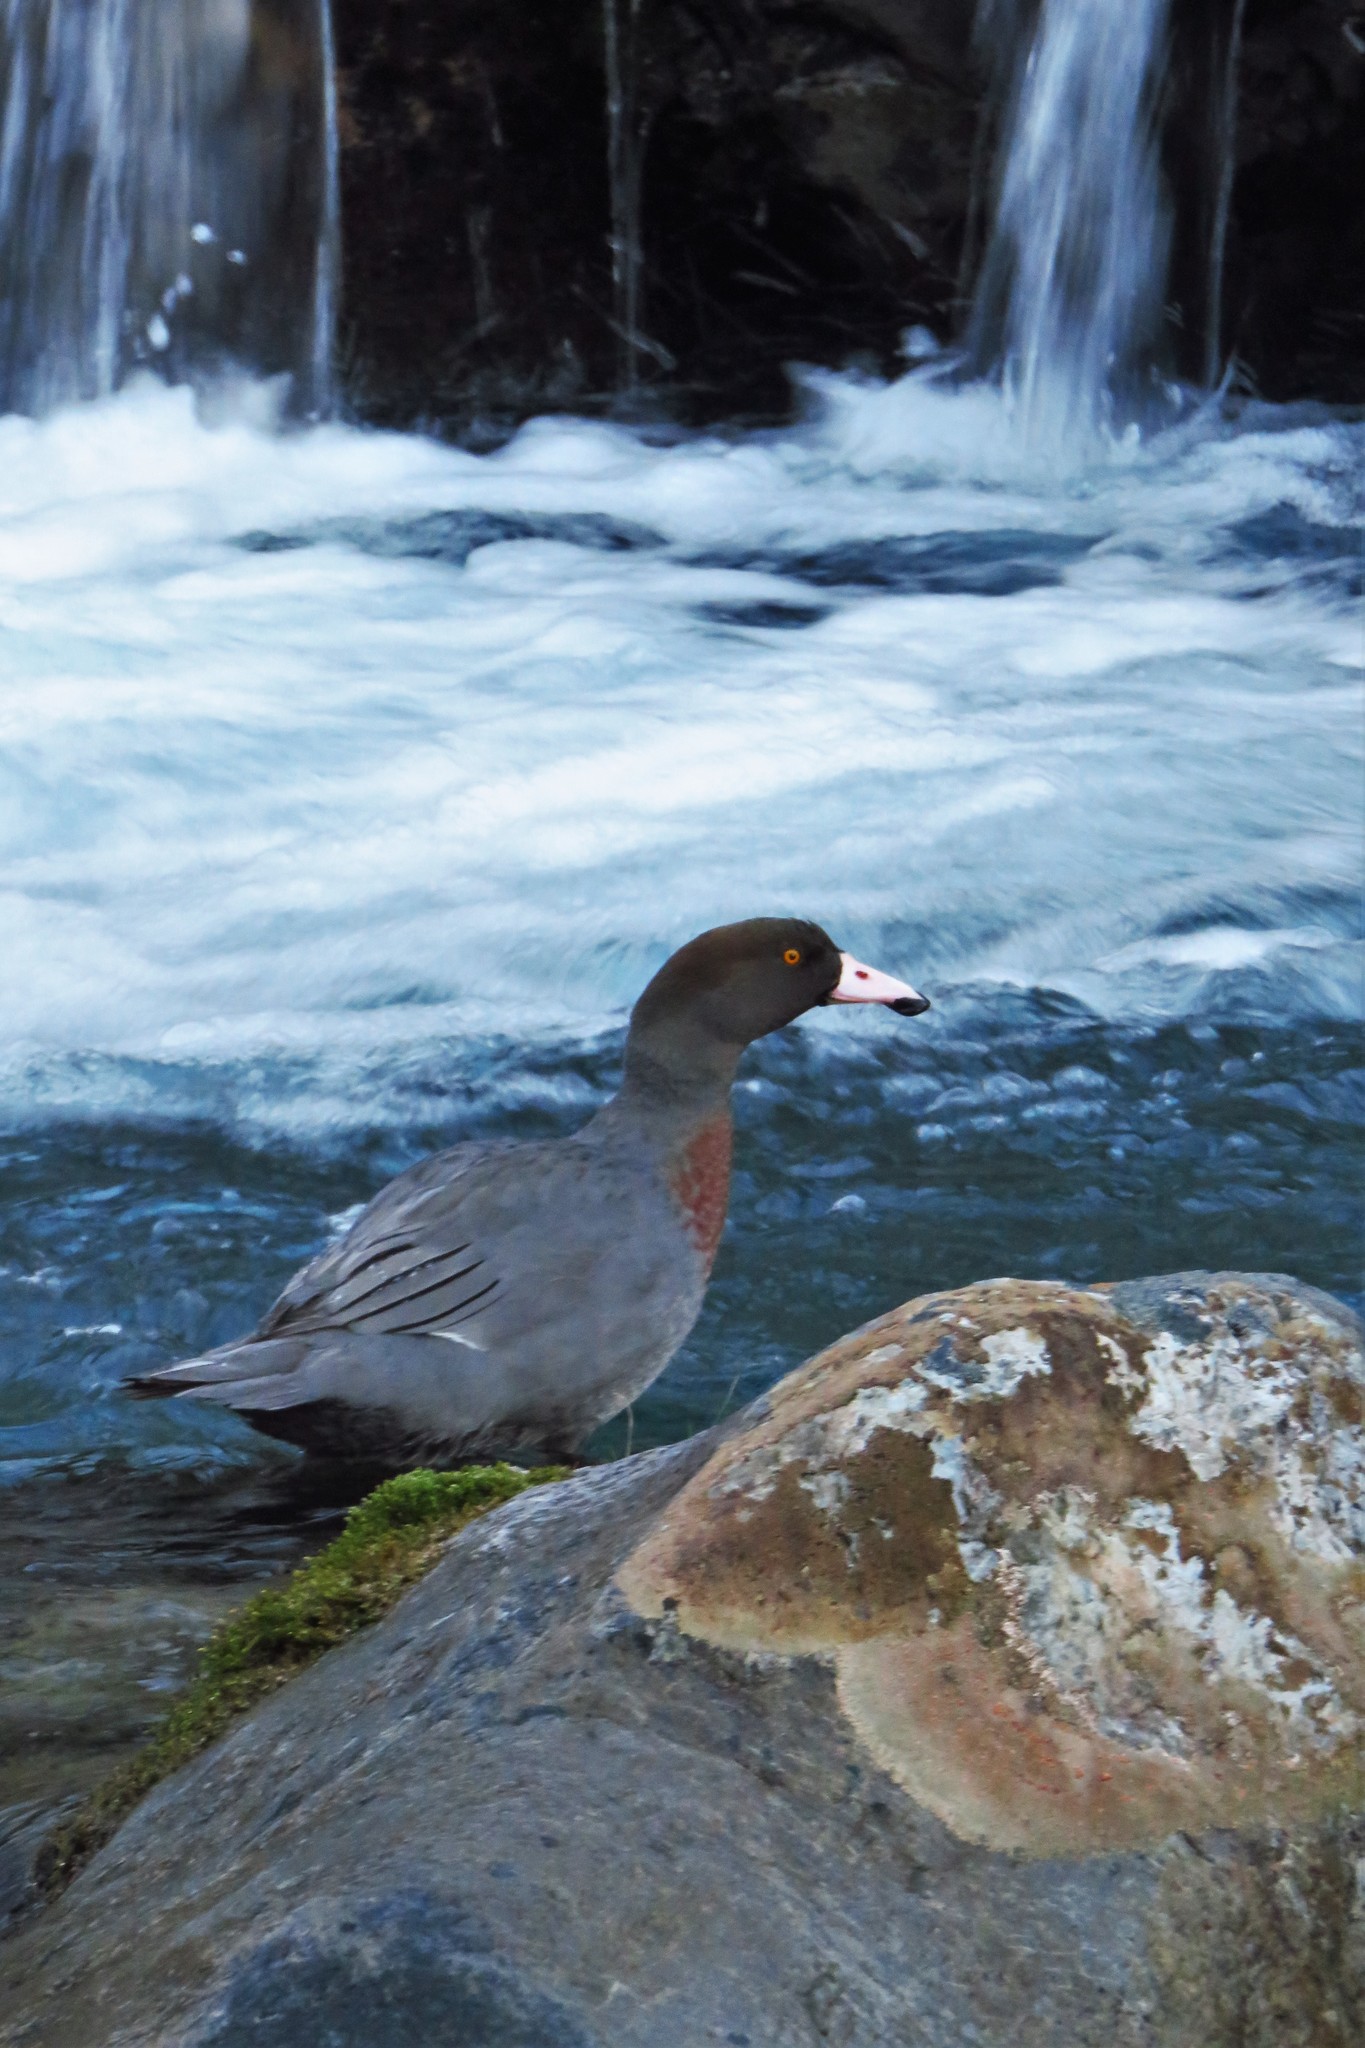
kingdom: Animalia
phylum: Chordata
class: Aves
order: Anseriformes
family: Anatidae
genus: Hymenolaimus
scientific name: Hymenolaimus malacorhynchos
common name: Blue duck
